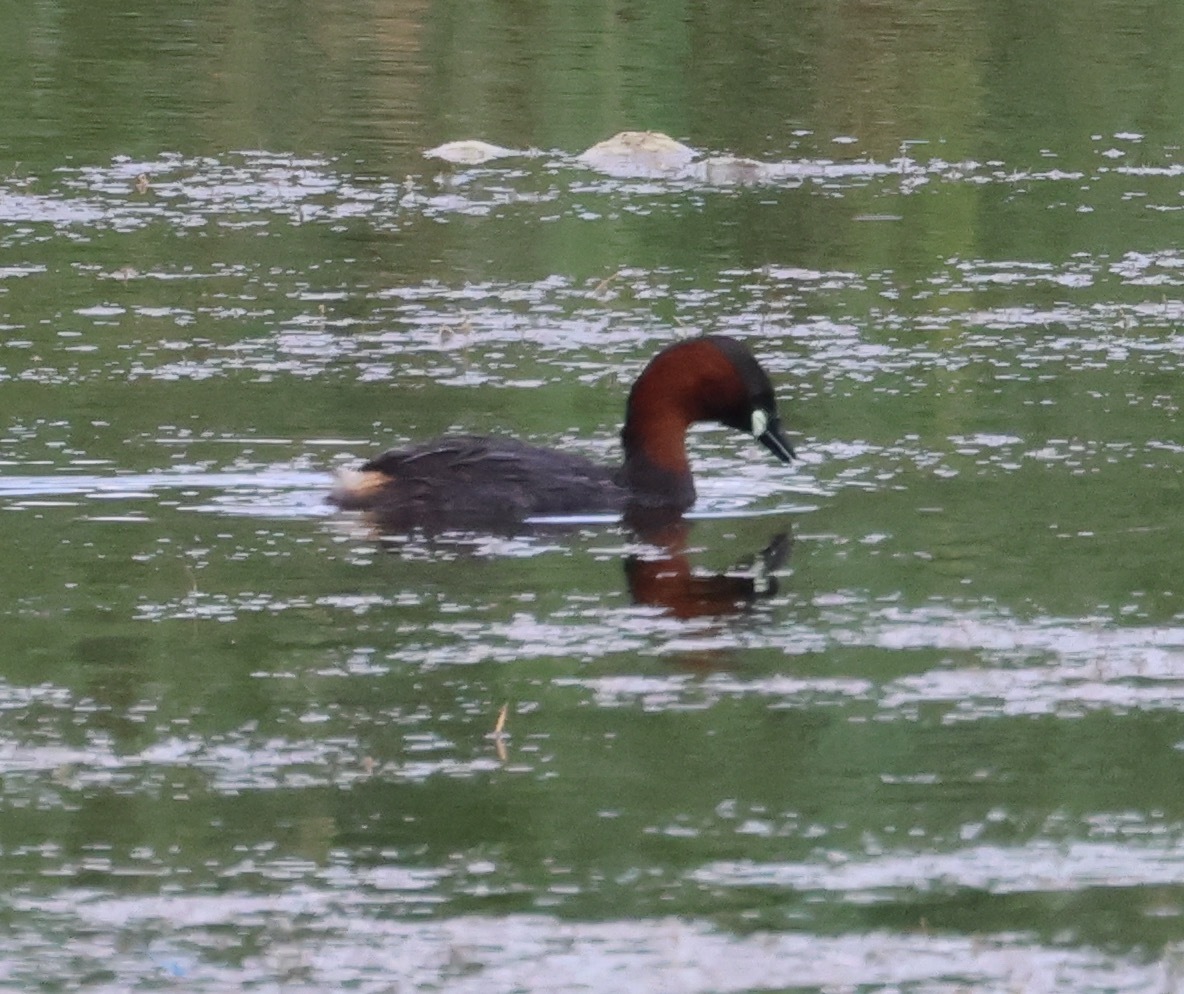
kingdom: Animalia
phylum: Chordata
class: Aves
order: Podicipediformes
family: Podicipedidae
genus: Tachybaptus
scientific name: Tachybaptus ruficollis
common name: Little grebe
